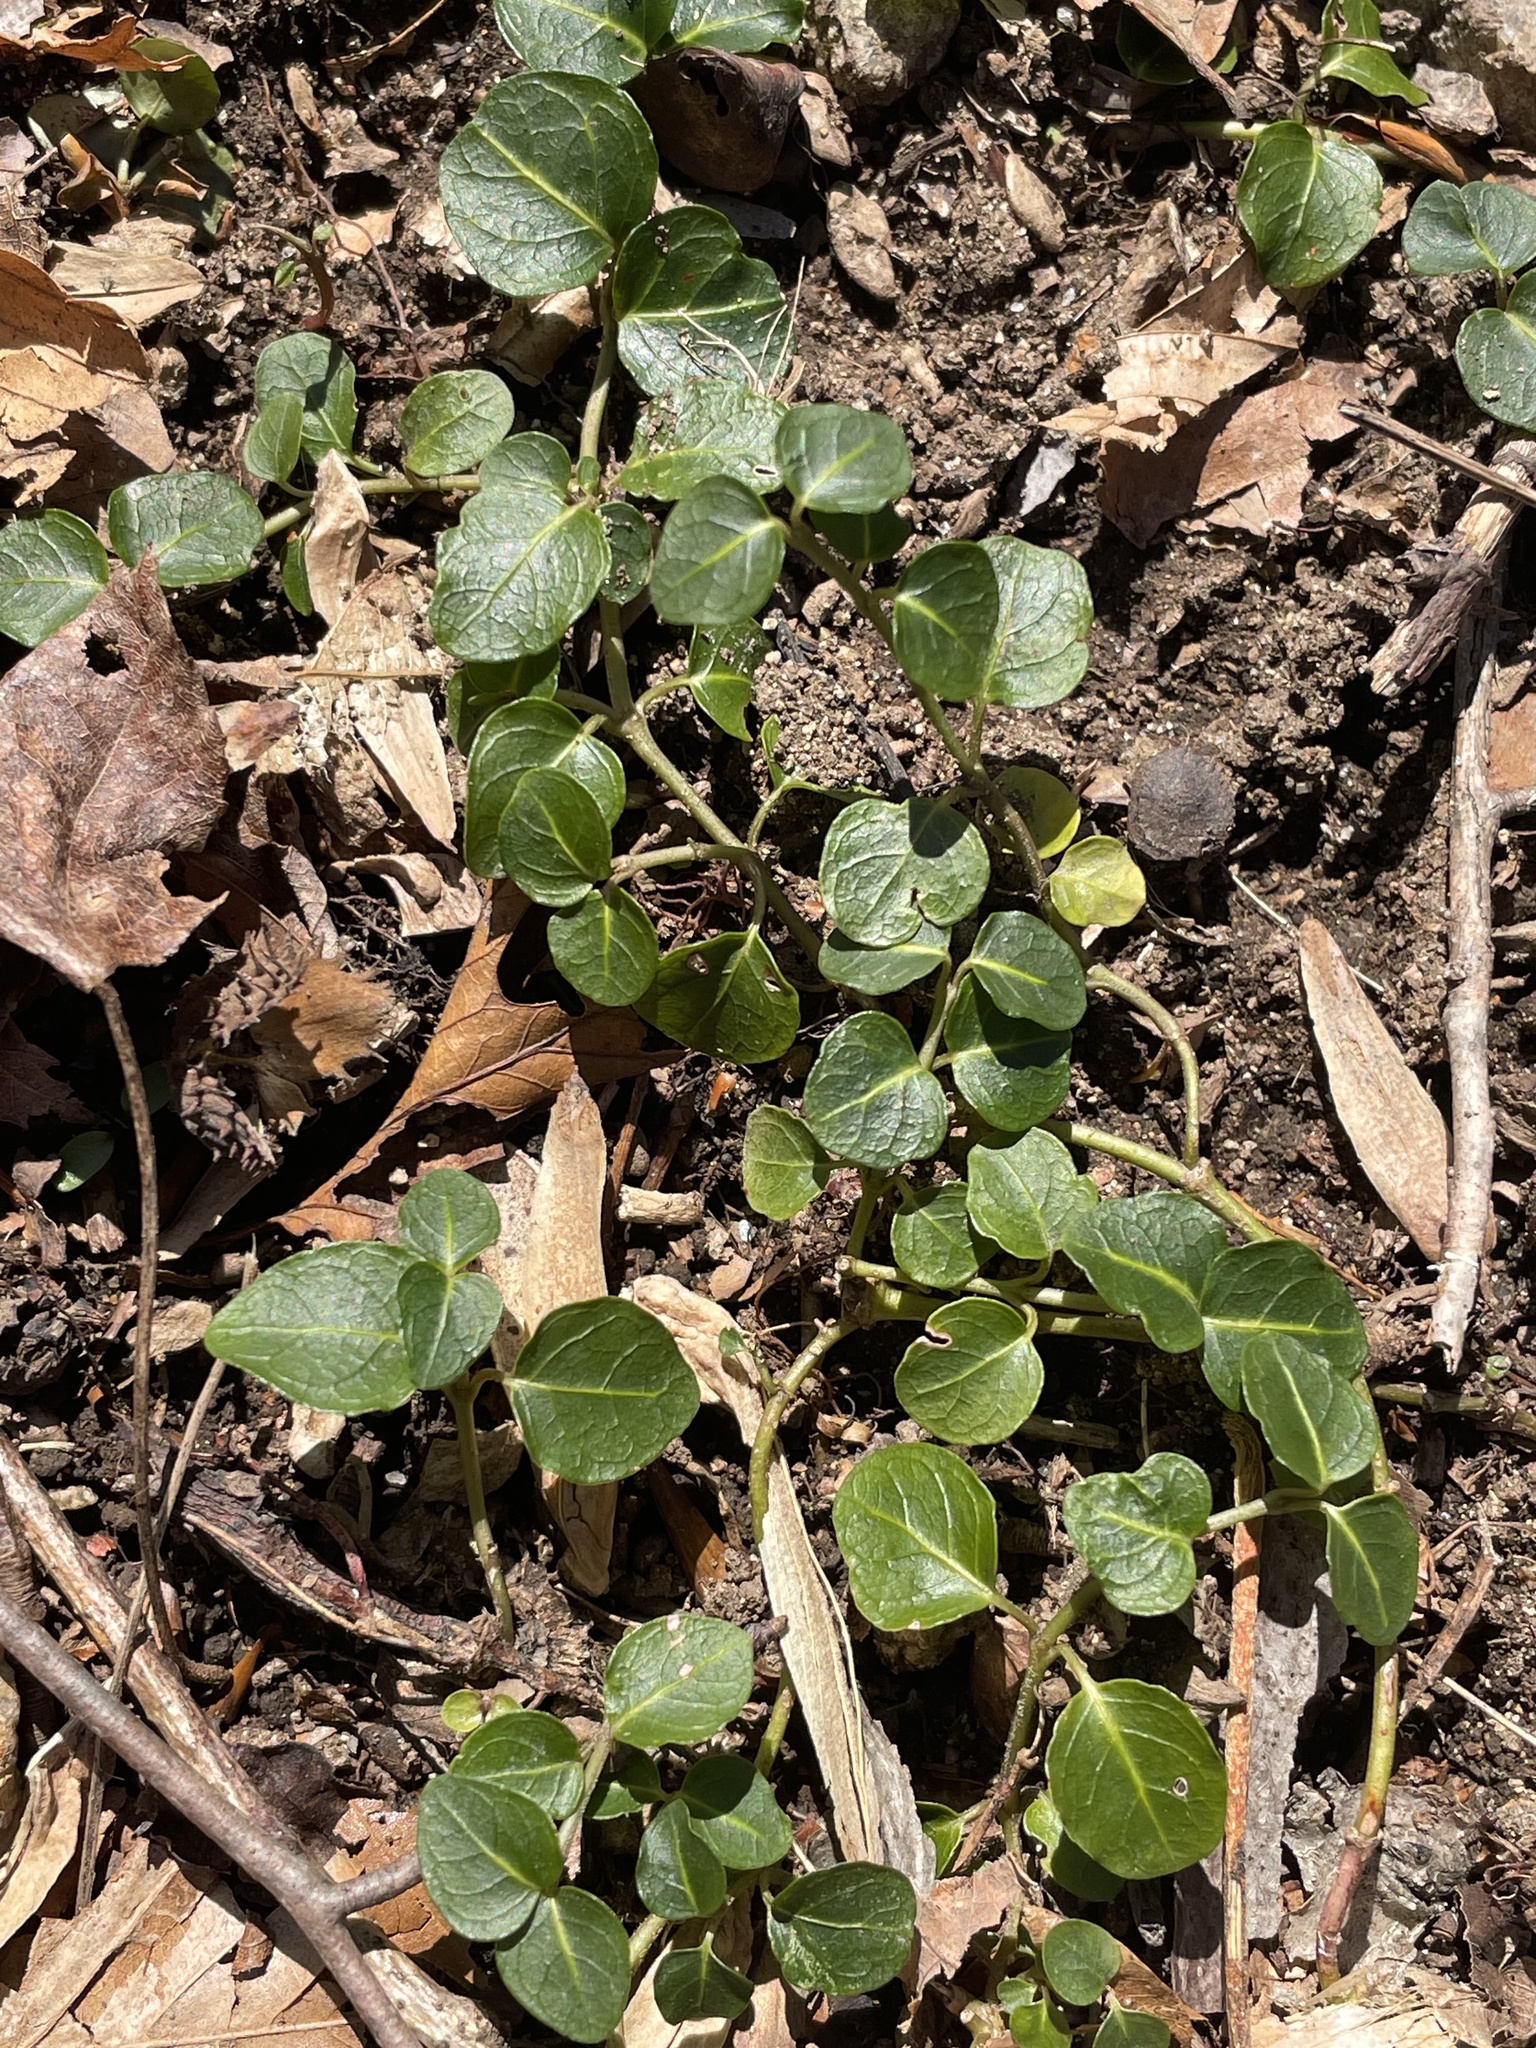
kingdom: Plantae
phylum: Tracheophyta
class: Magnoliopsida
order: Gentianales
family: Rubiaceae
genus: Mitchella
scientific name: Mitchella repens
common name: Partridge-berry
